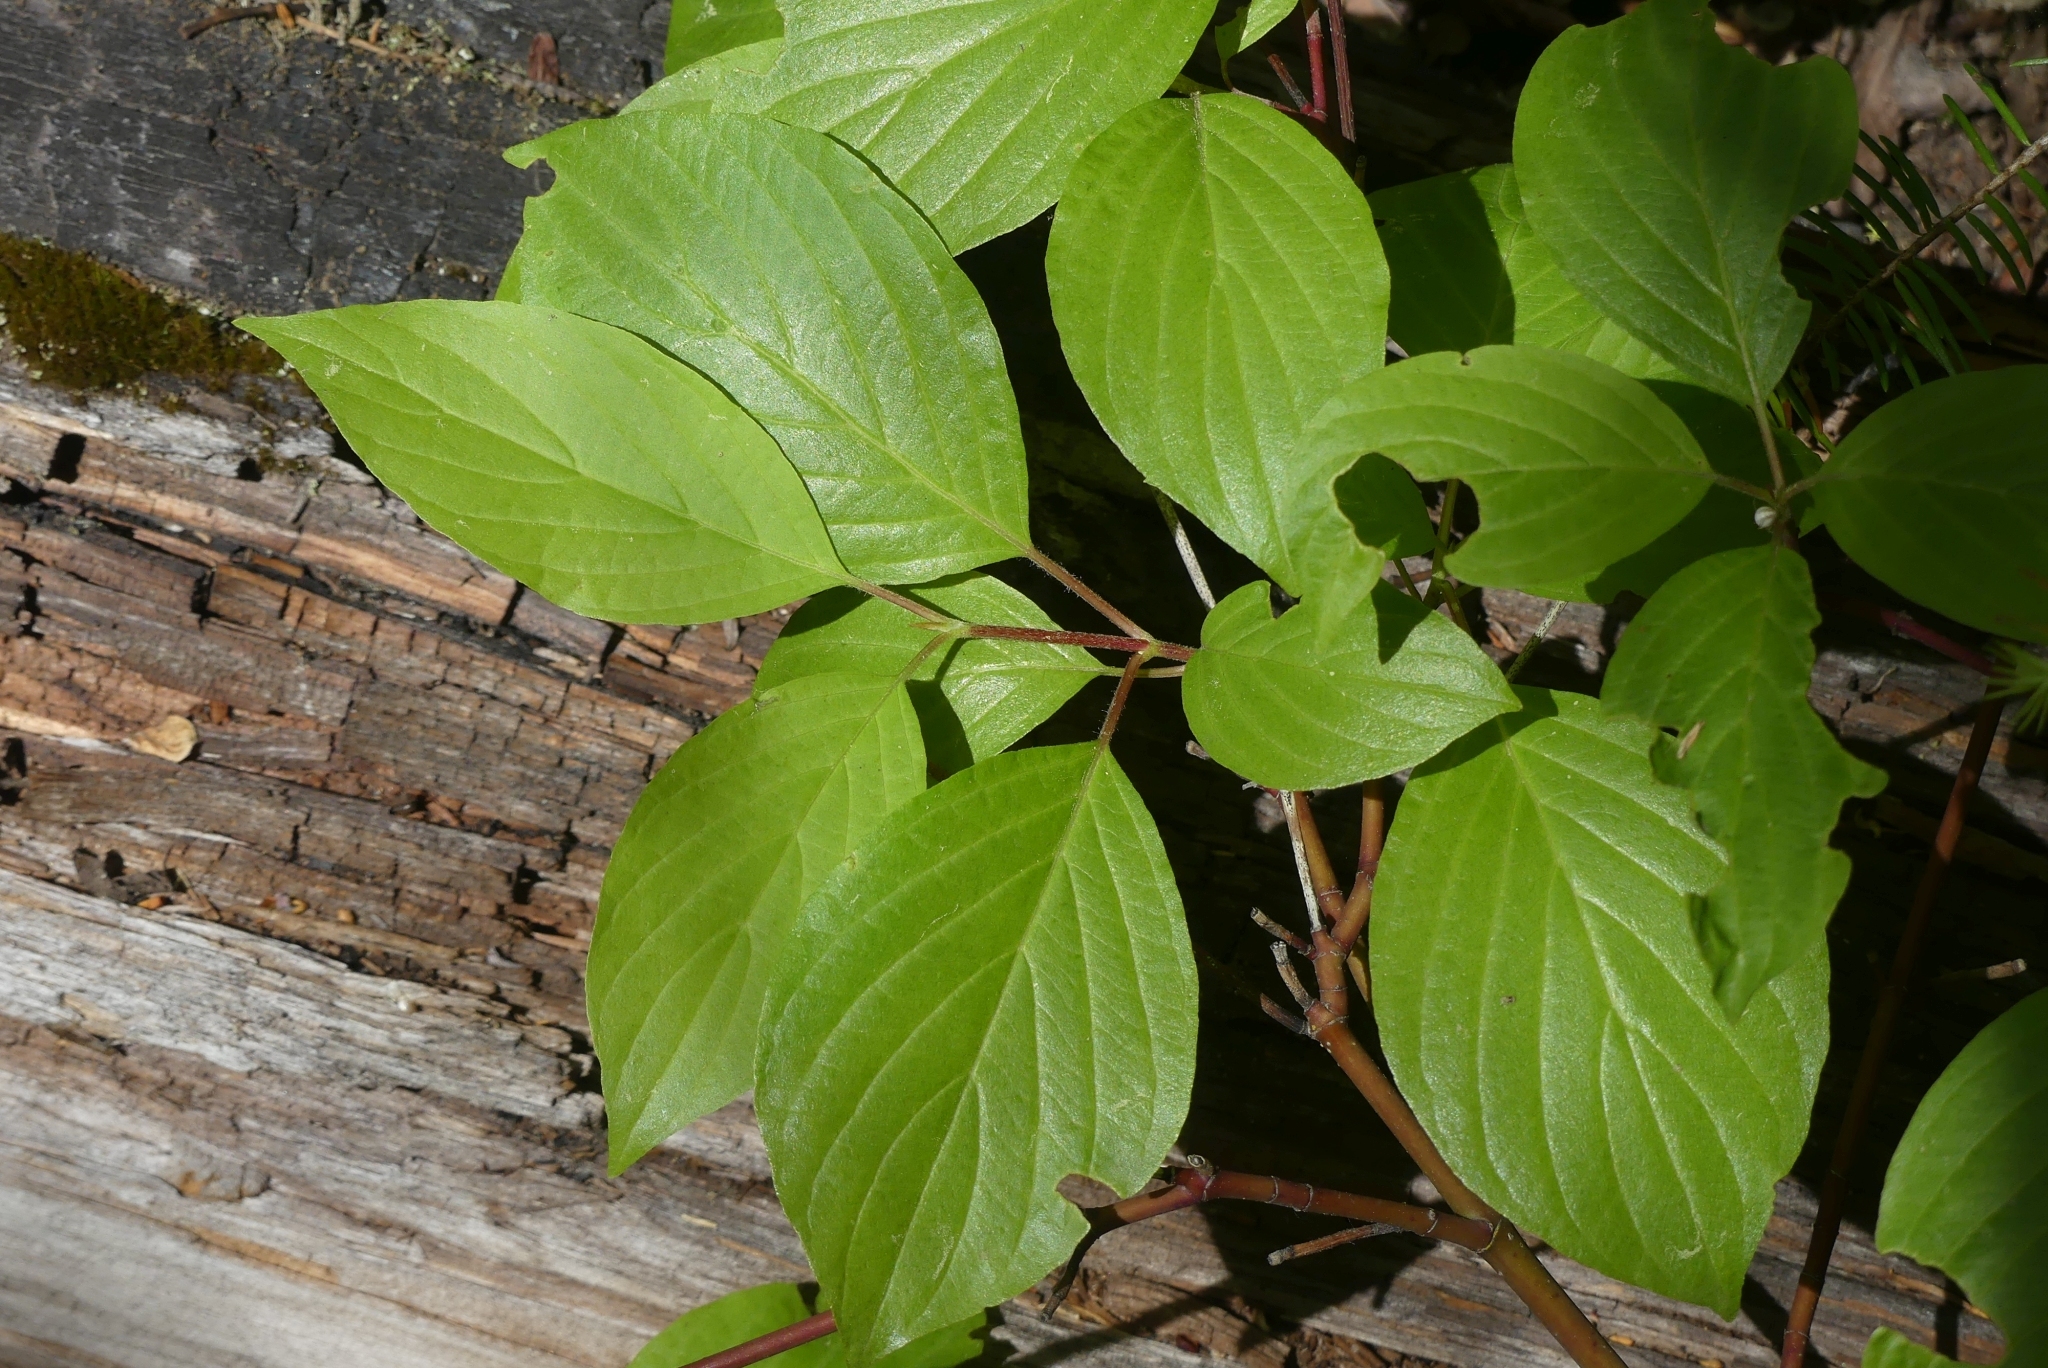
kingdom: Plantae
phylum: Tracheophyta
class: Magnoliopsida
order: Cornales
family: Cornaceae
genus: Cornus
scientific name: Cornus sericea
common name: Red-osier dogwood
